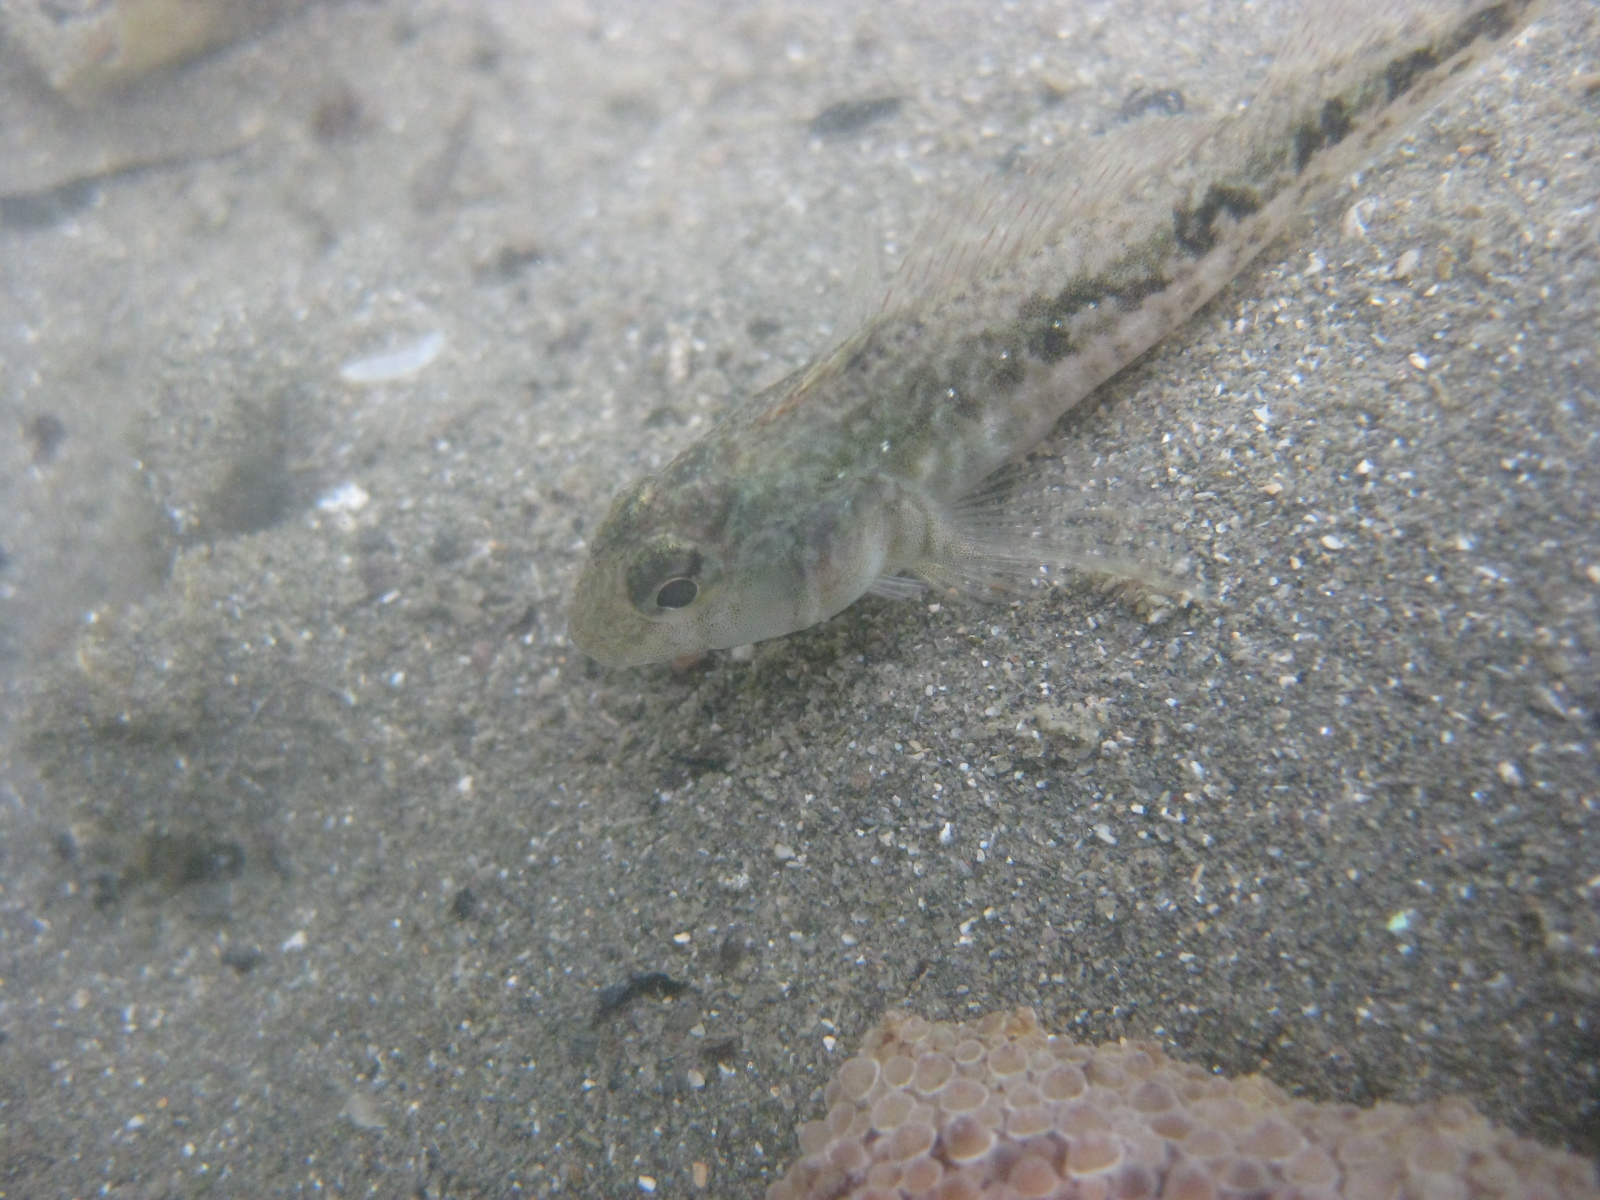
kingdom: Animalia
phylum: Chordata
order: Perciformes
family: Tripterygiidae
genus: Forsterygion
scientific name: Forsterygion nigripenne
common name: Cockabully
